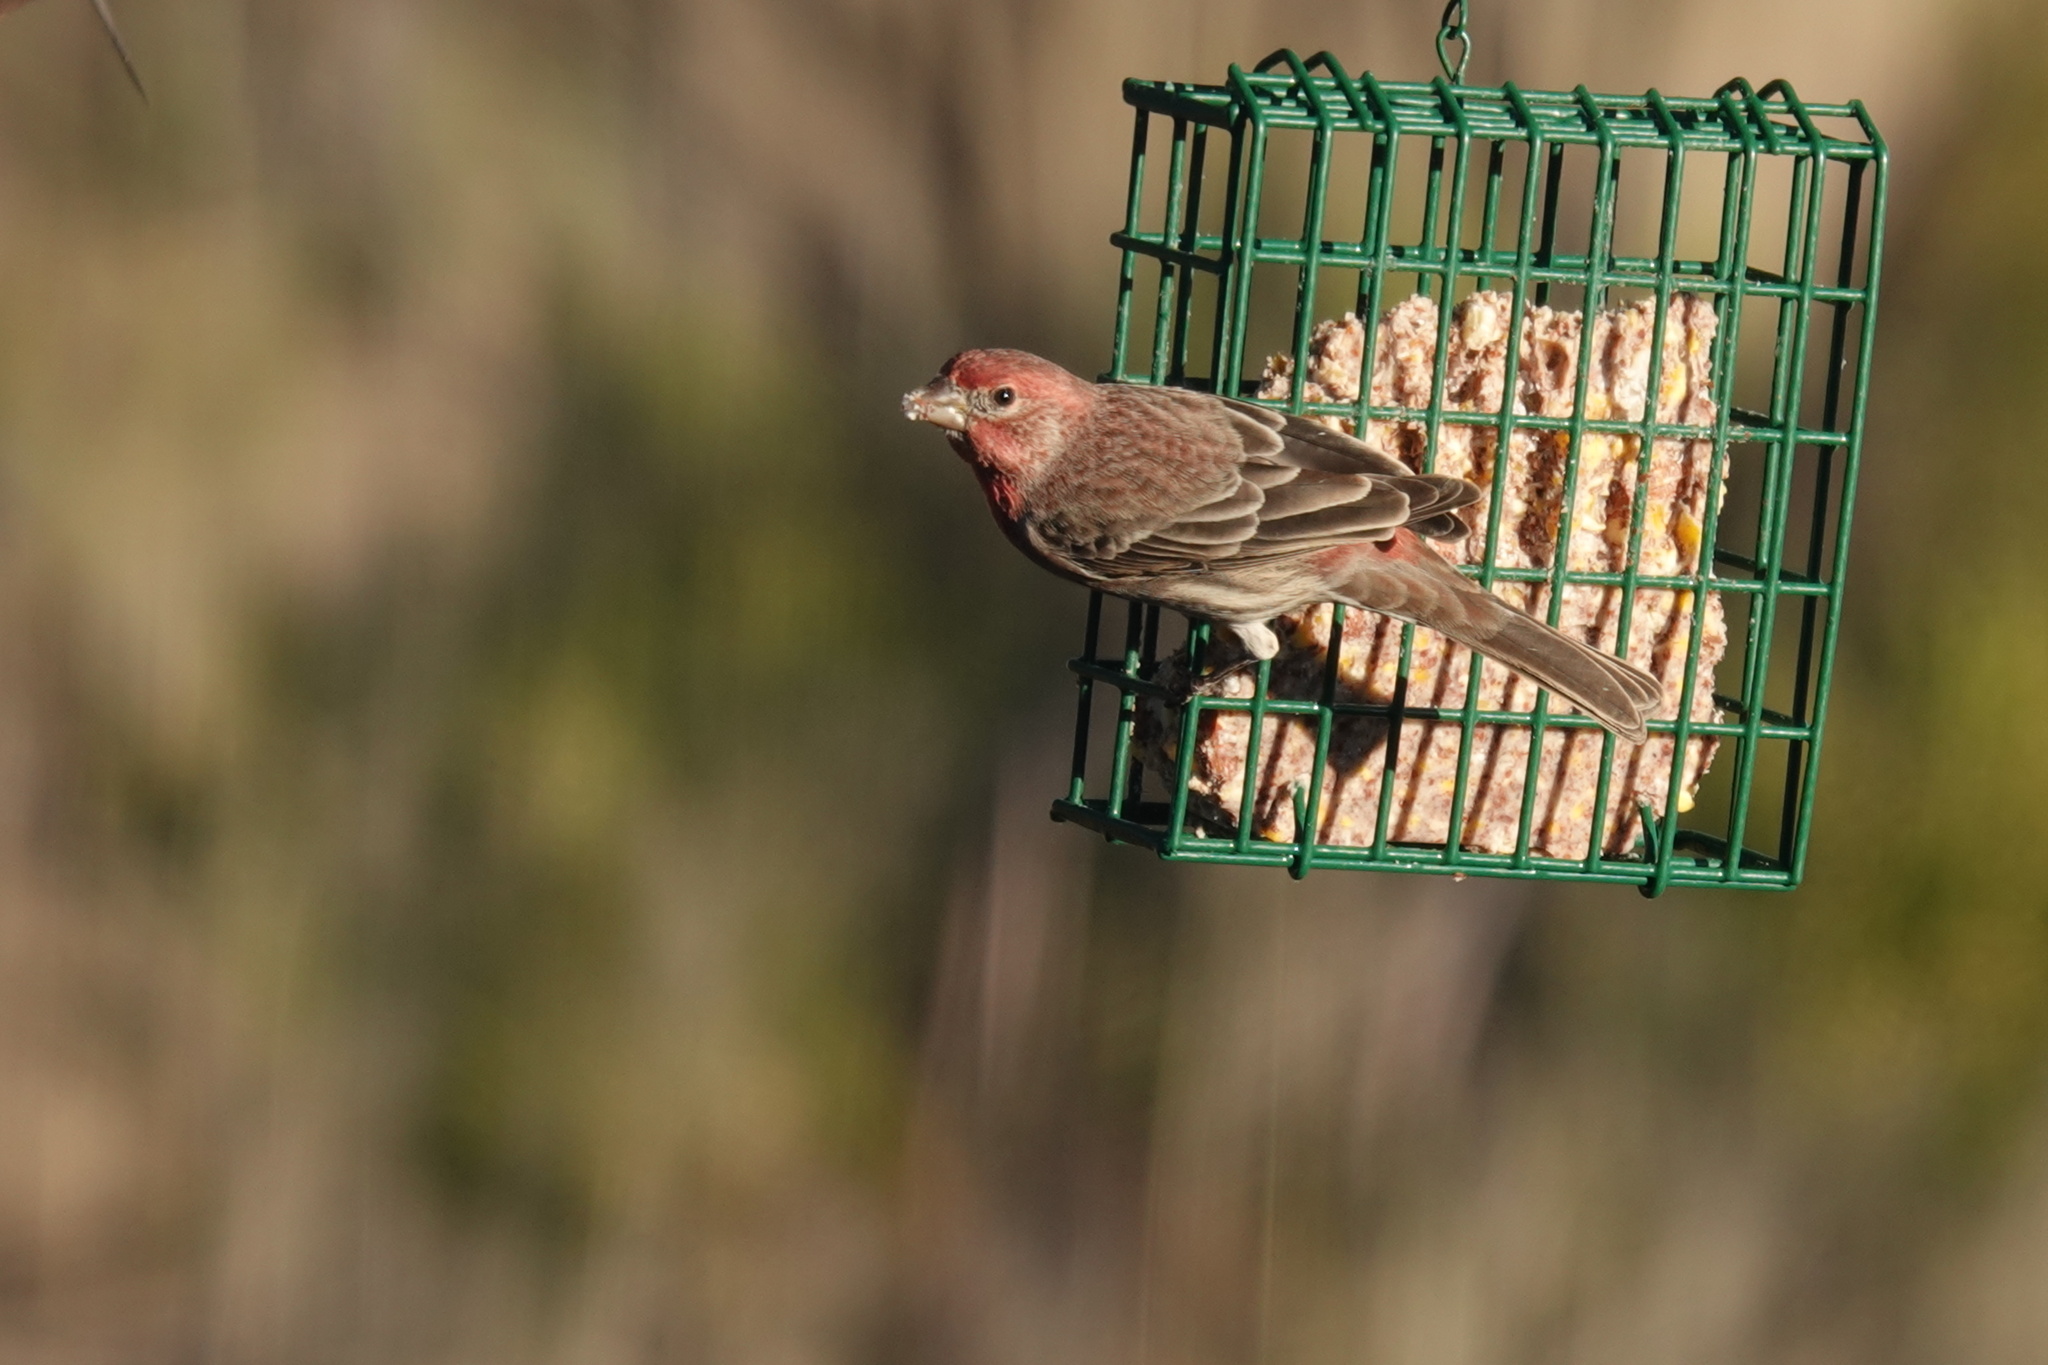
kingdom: Animalia
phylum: Chordata
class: Aves
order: Passeriformes
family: Fringillidae
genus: Haemorhous
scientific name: Haemorhous mexicanus
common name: House finch
